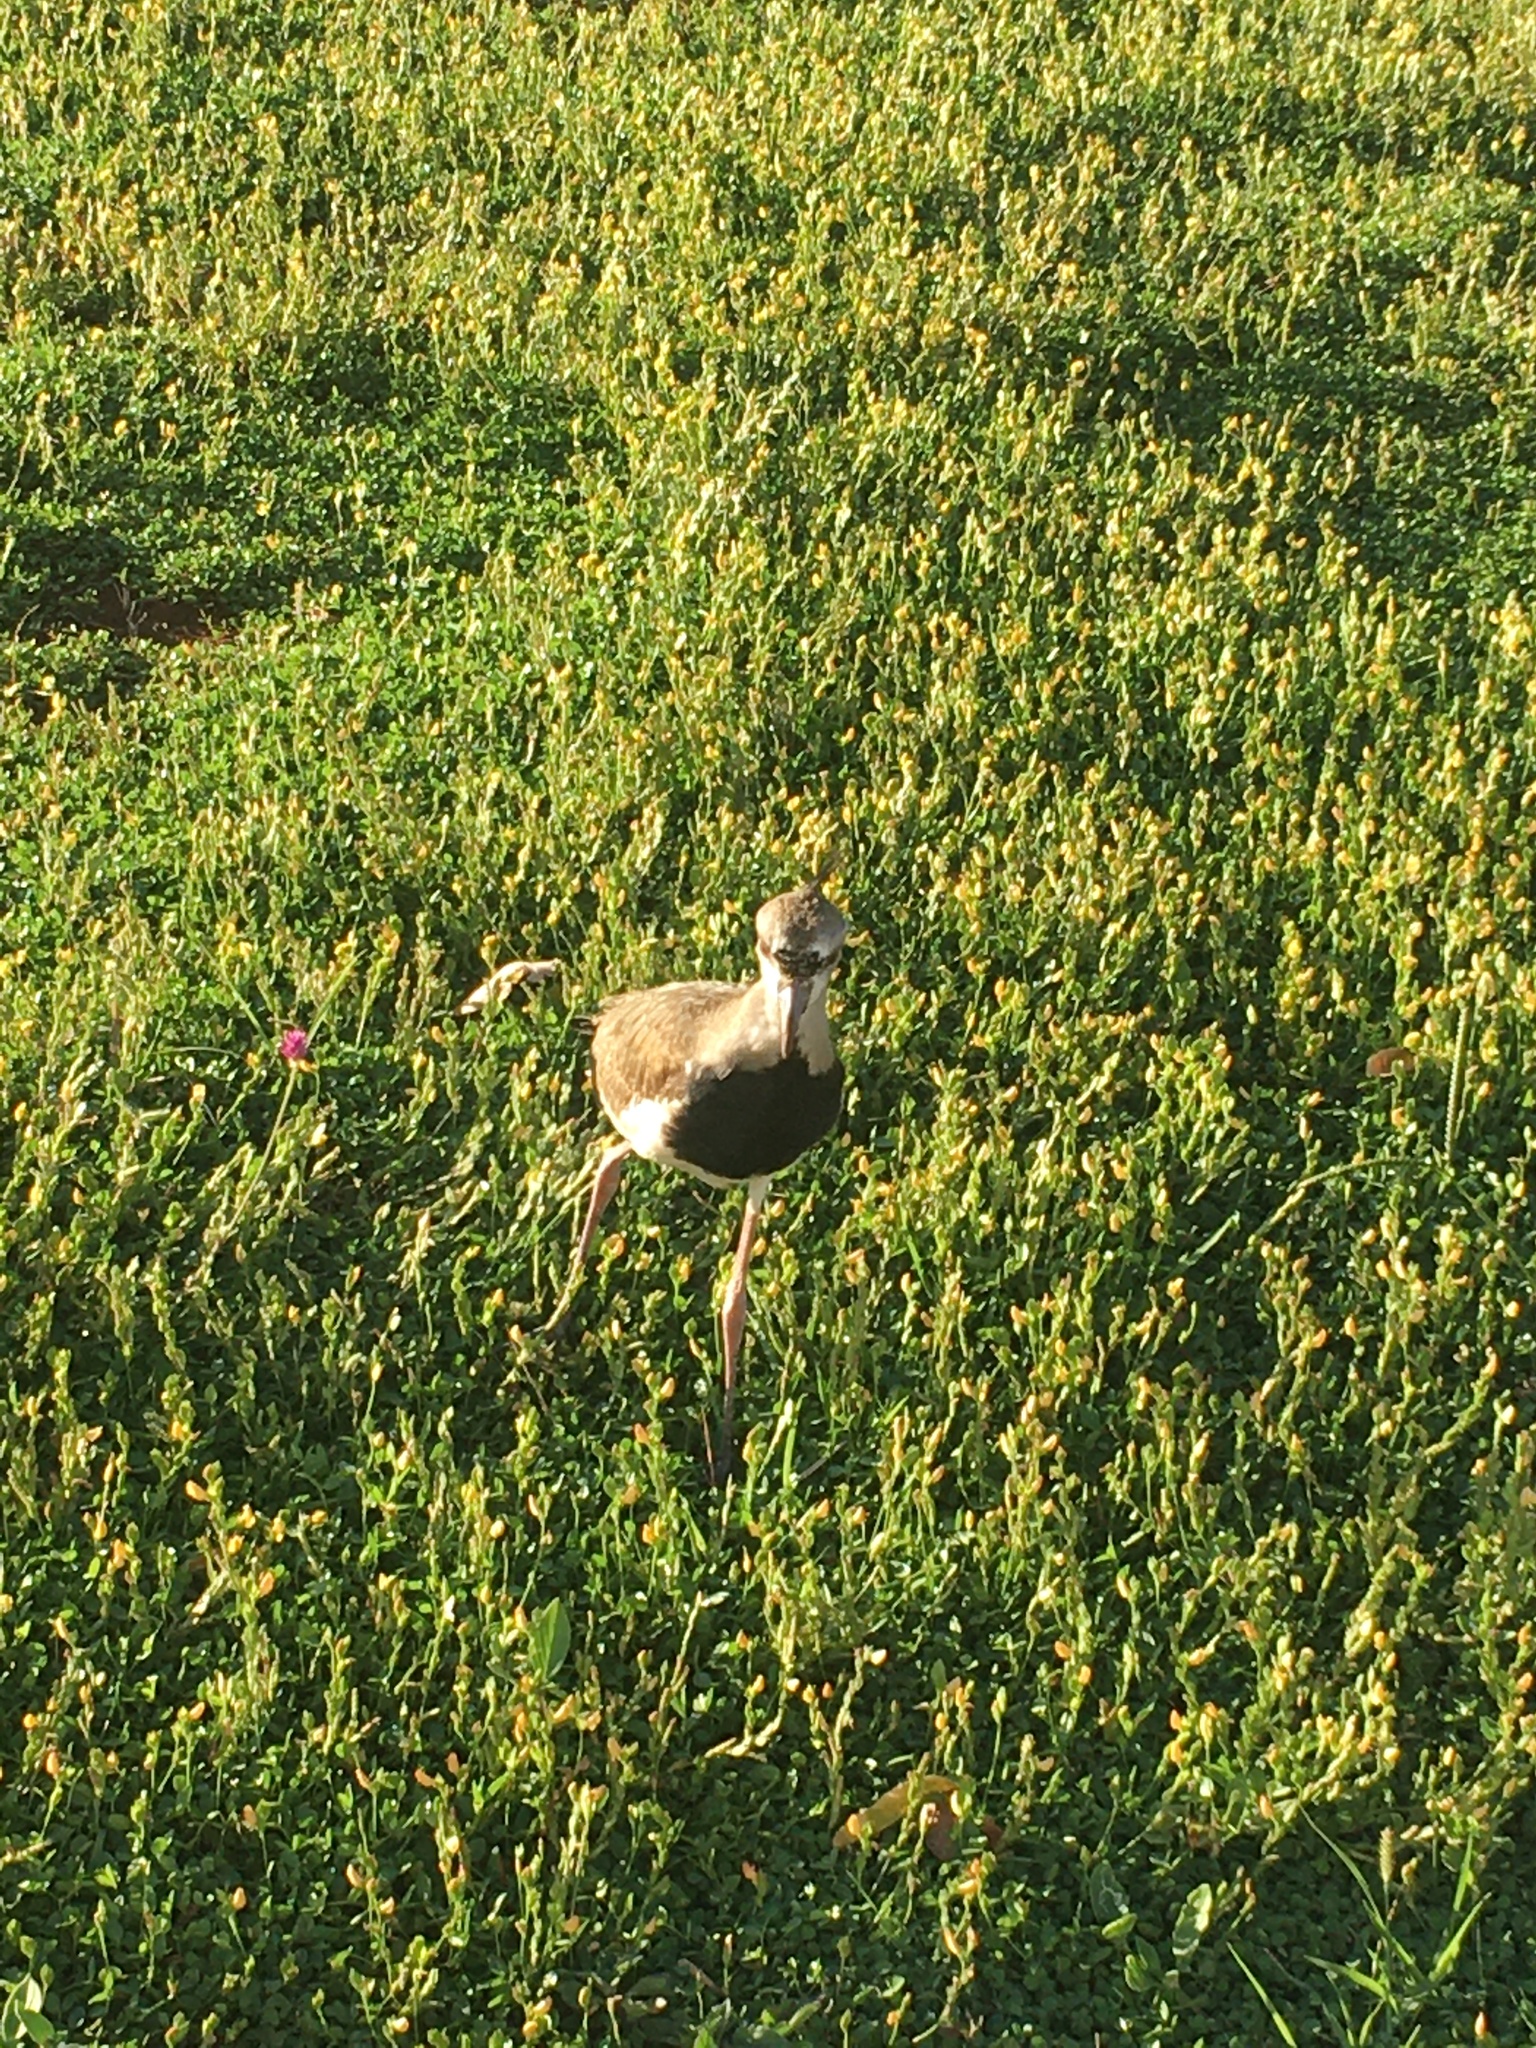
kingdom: Animalia
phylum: Chordata
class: Aves
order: Charadriiformes
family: Charadriidae
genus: Vanellus
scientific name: Vanellus chilensis
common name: Southern lapwing
